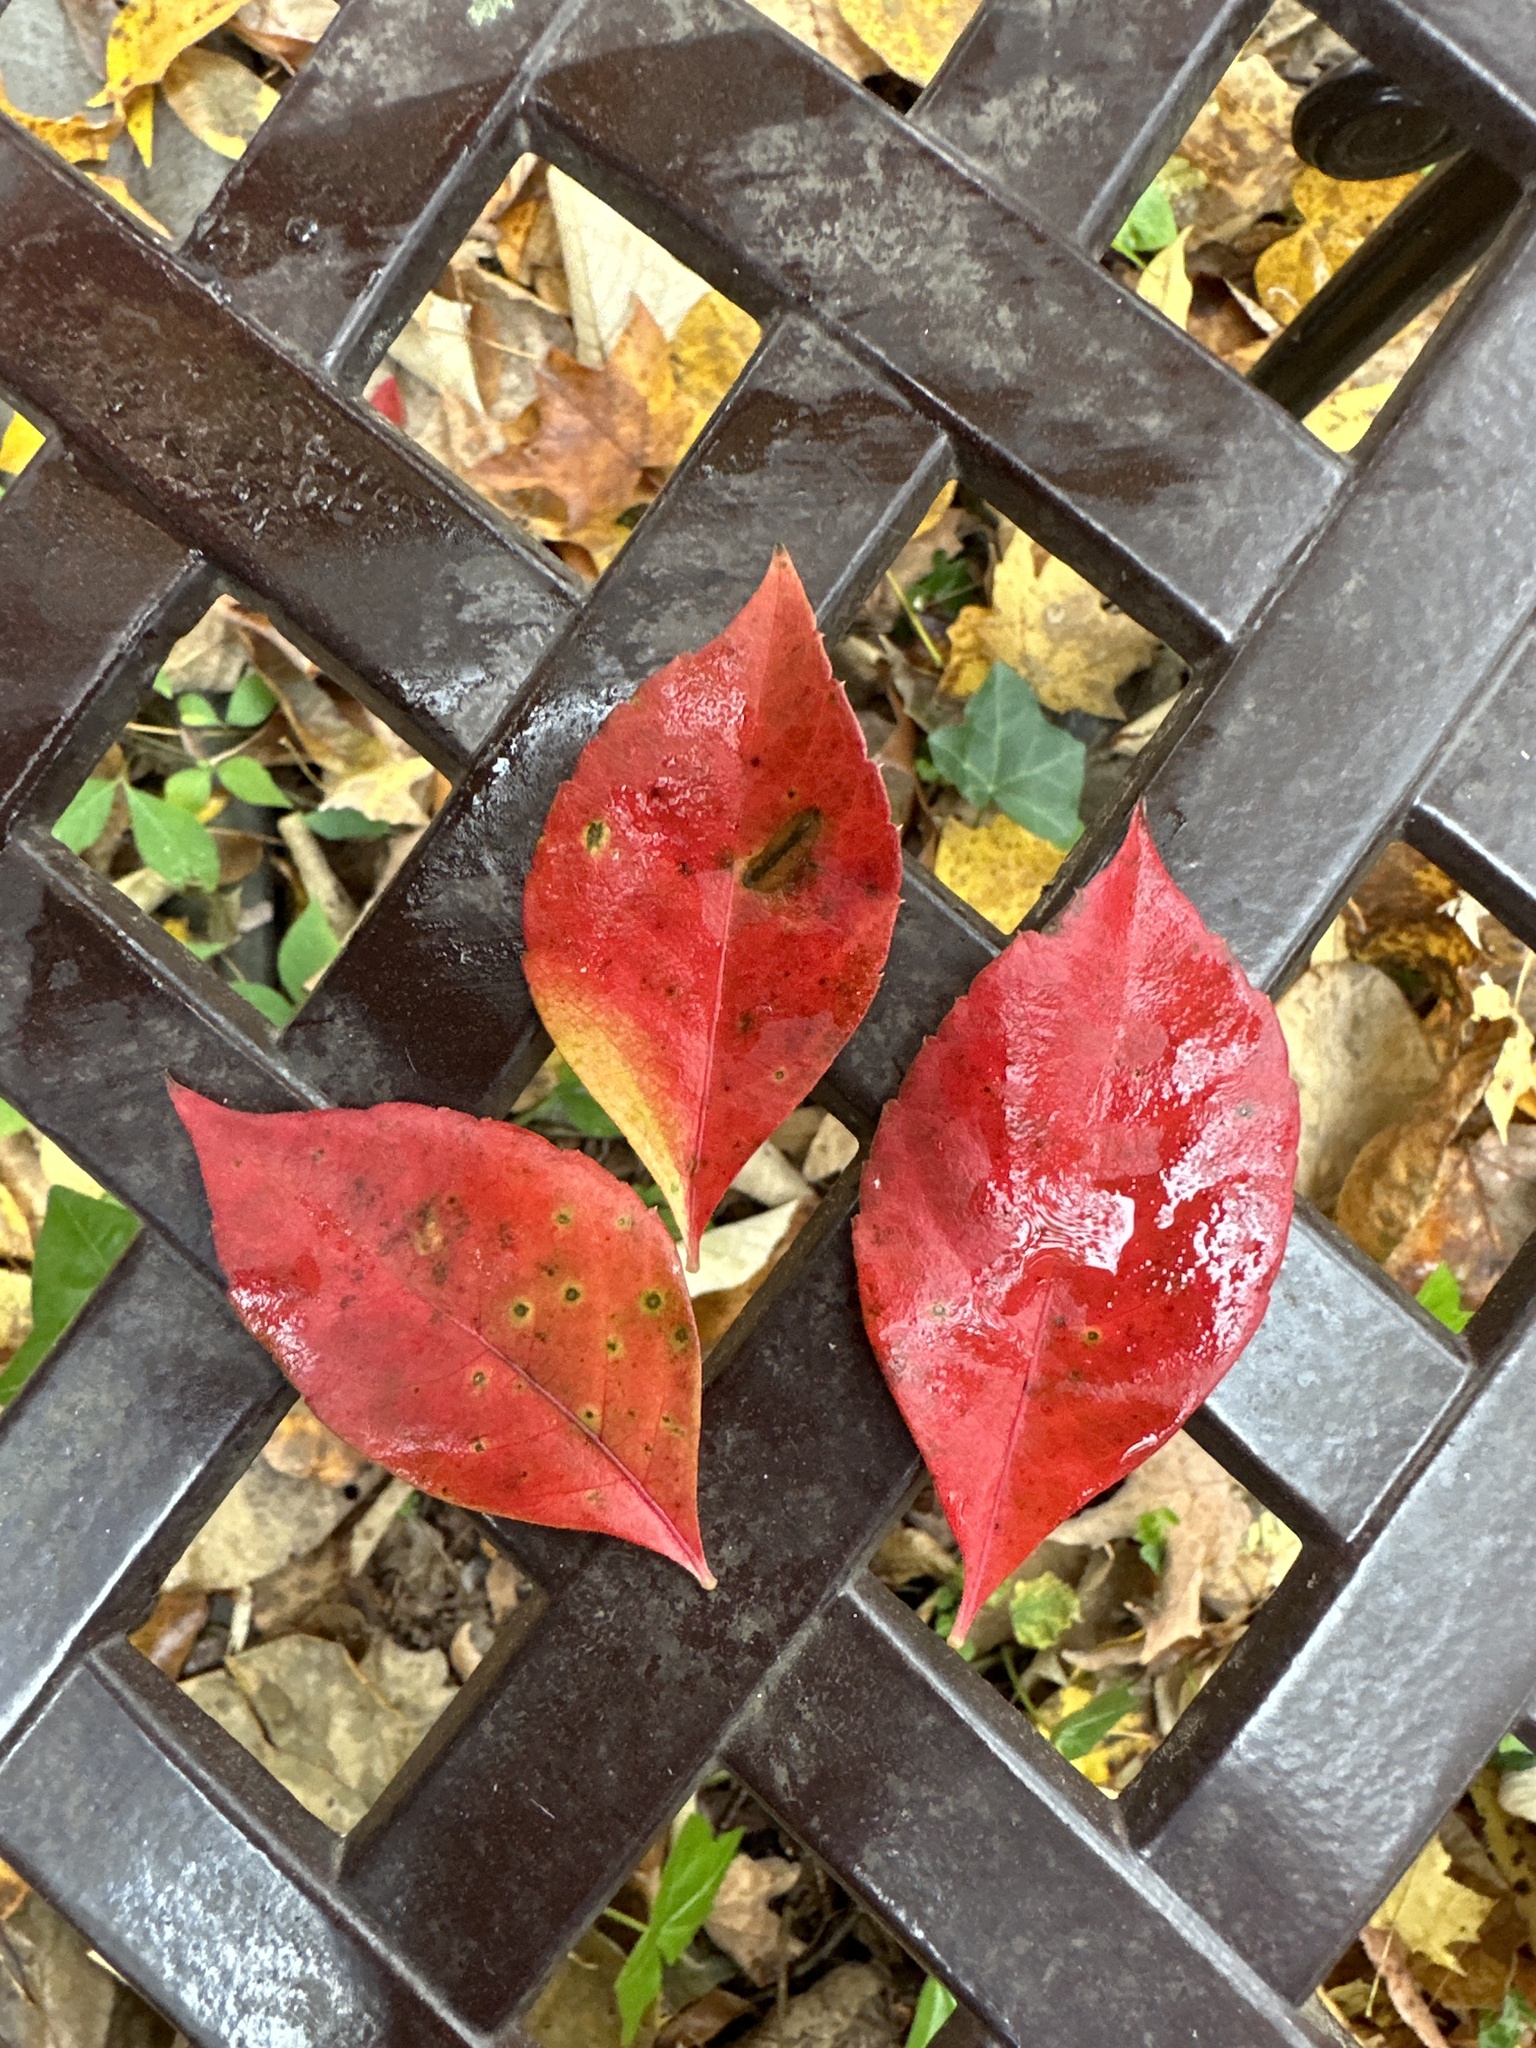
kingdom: Plantae
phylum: Tracheophyta
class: Magnoliopsida
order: Vitales
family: Vitaceae
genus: Parthenocissus
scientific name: Parthenocissus quinquefolia
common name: Virginia-creeper
